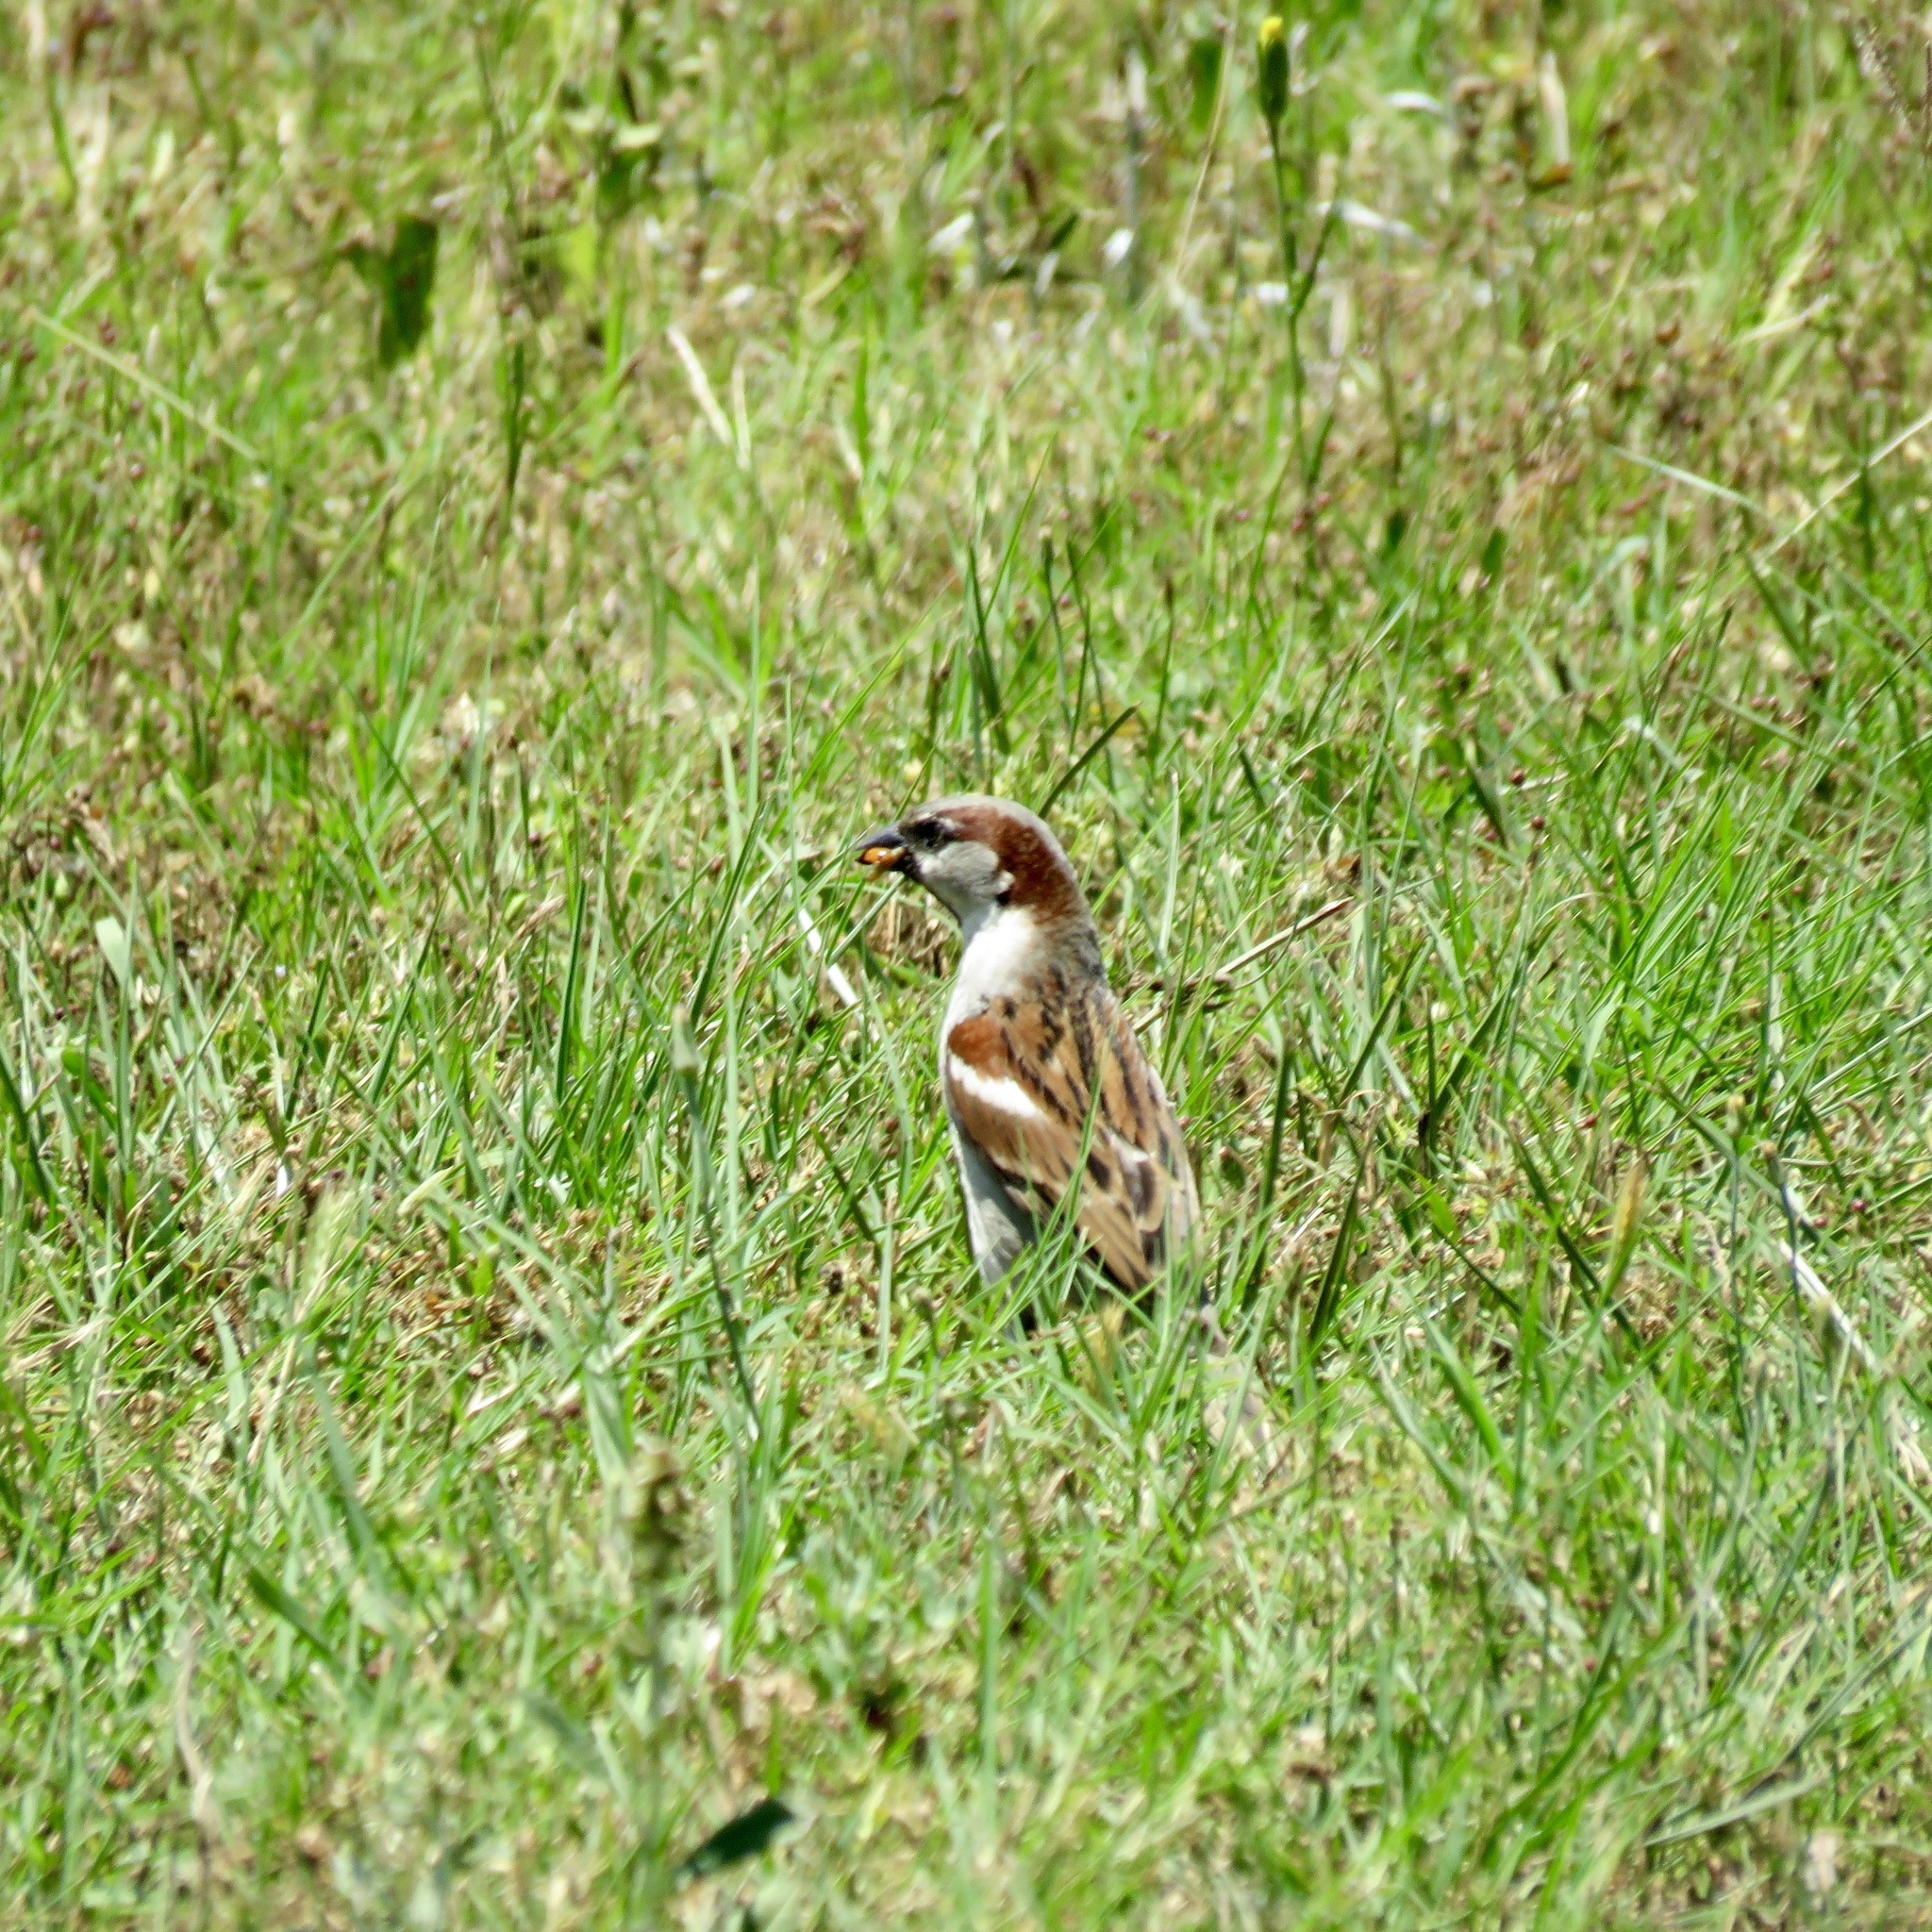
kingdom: Animalia
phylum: Chordata
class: Aves
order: Passeriformes
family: Passeridae
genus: Passer
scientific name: Passer domesticus
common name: House sparrow
